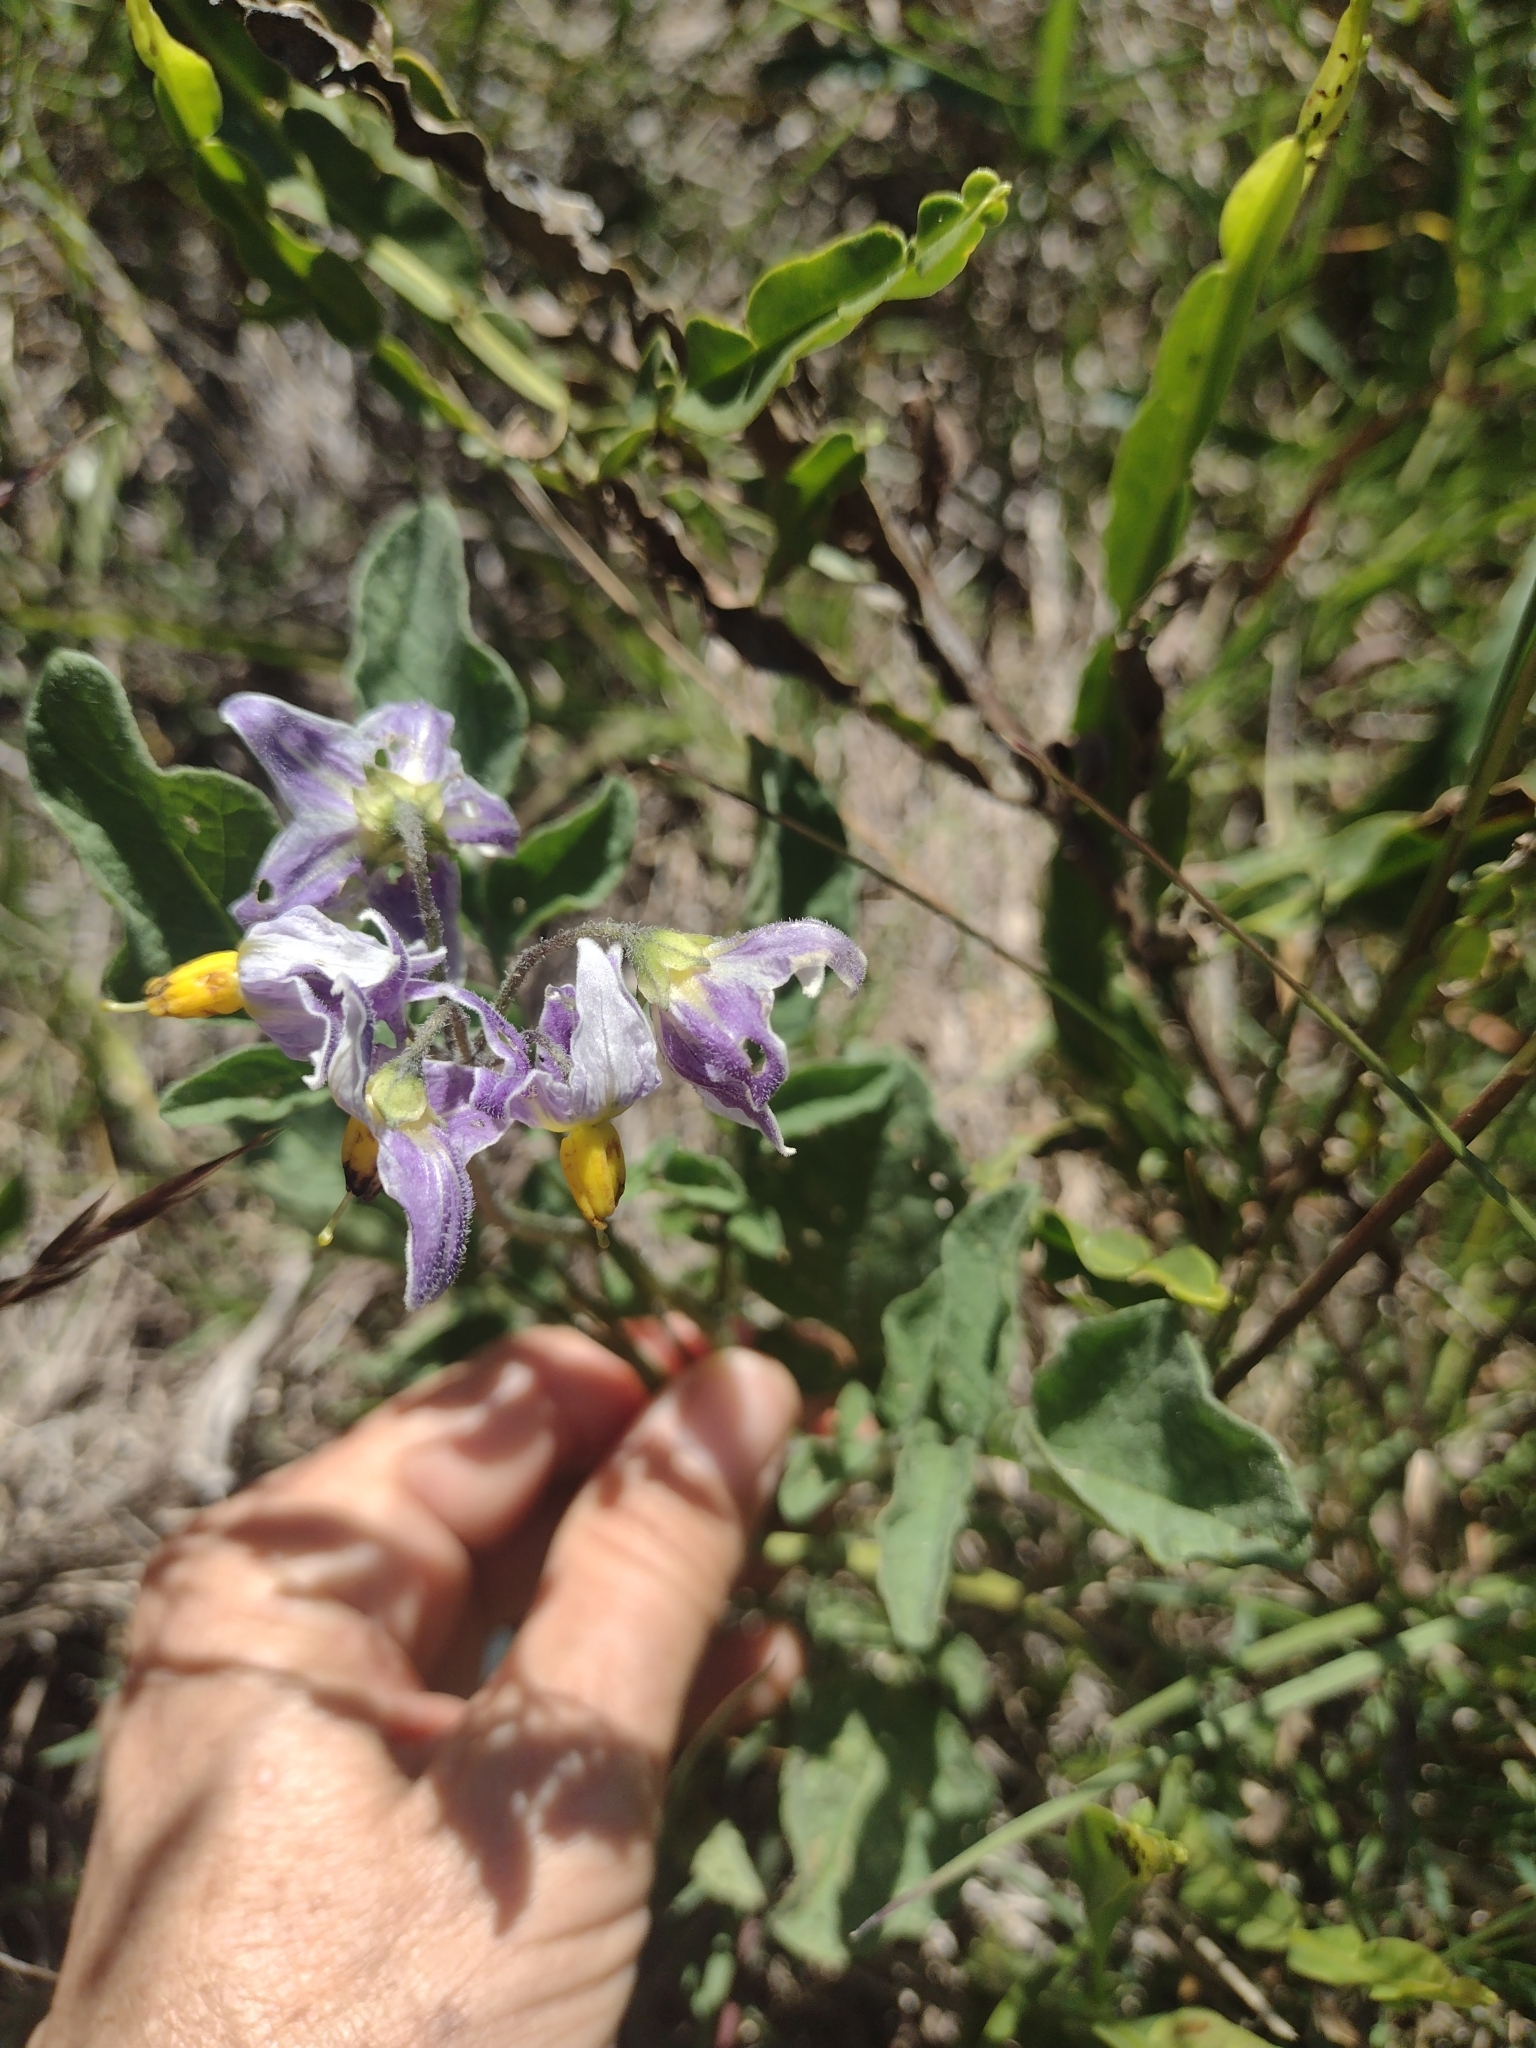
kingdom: Plantae
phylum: Tracheophyta
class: Magnoliopsida
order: Solanales
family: Solanaceae
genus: Solanum
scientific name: Solanum commersonii
